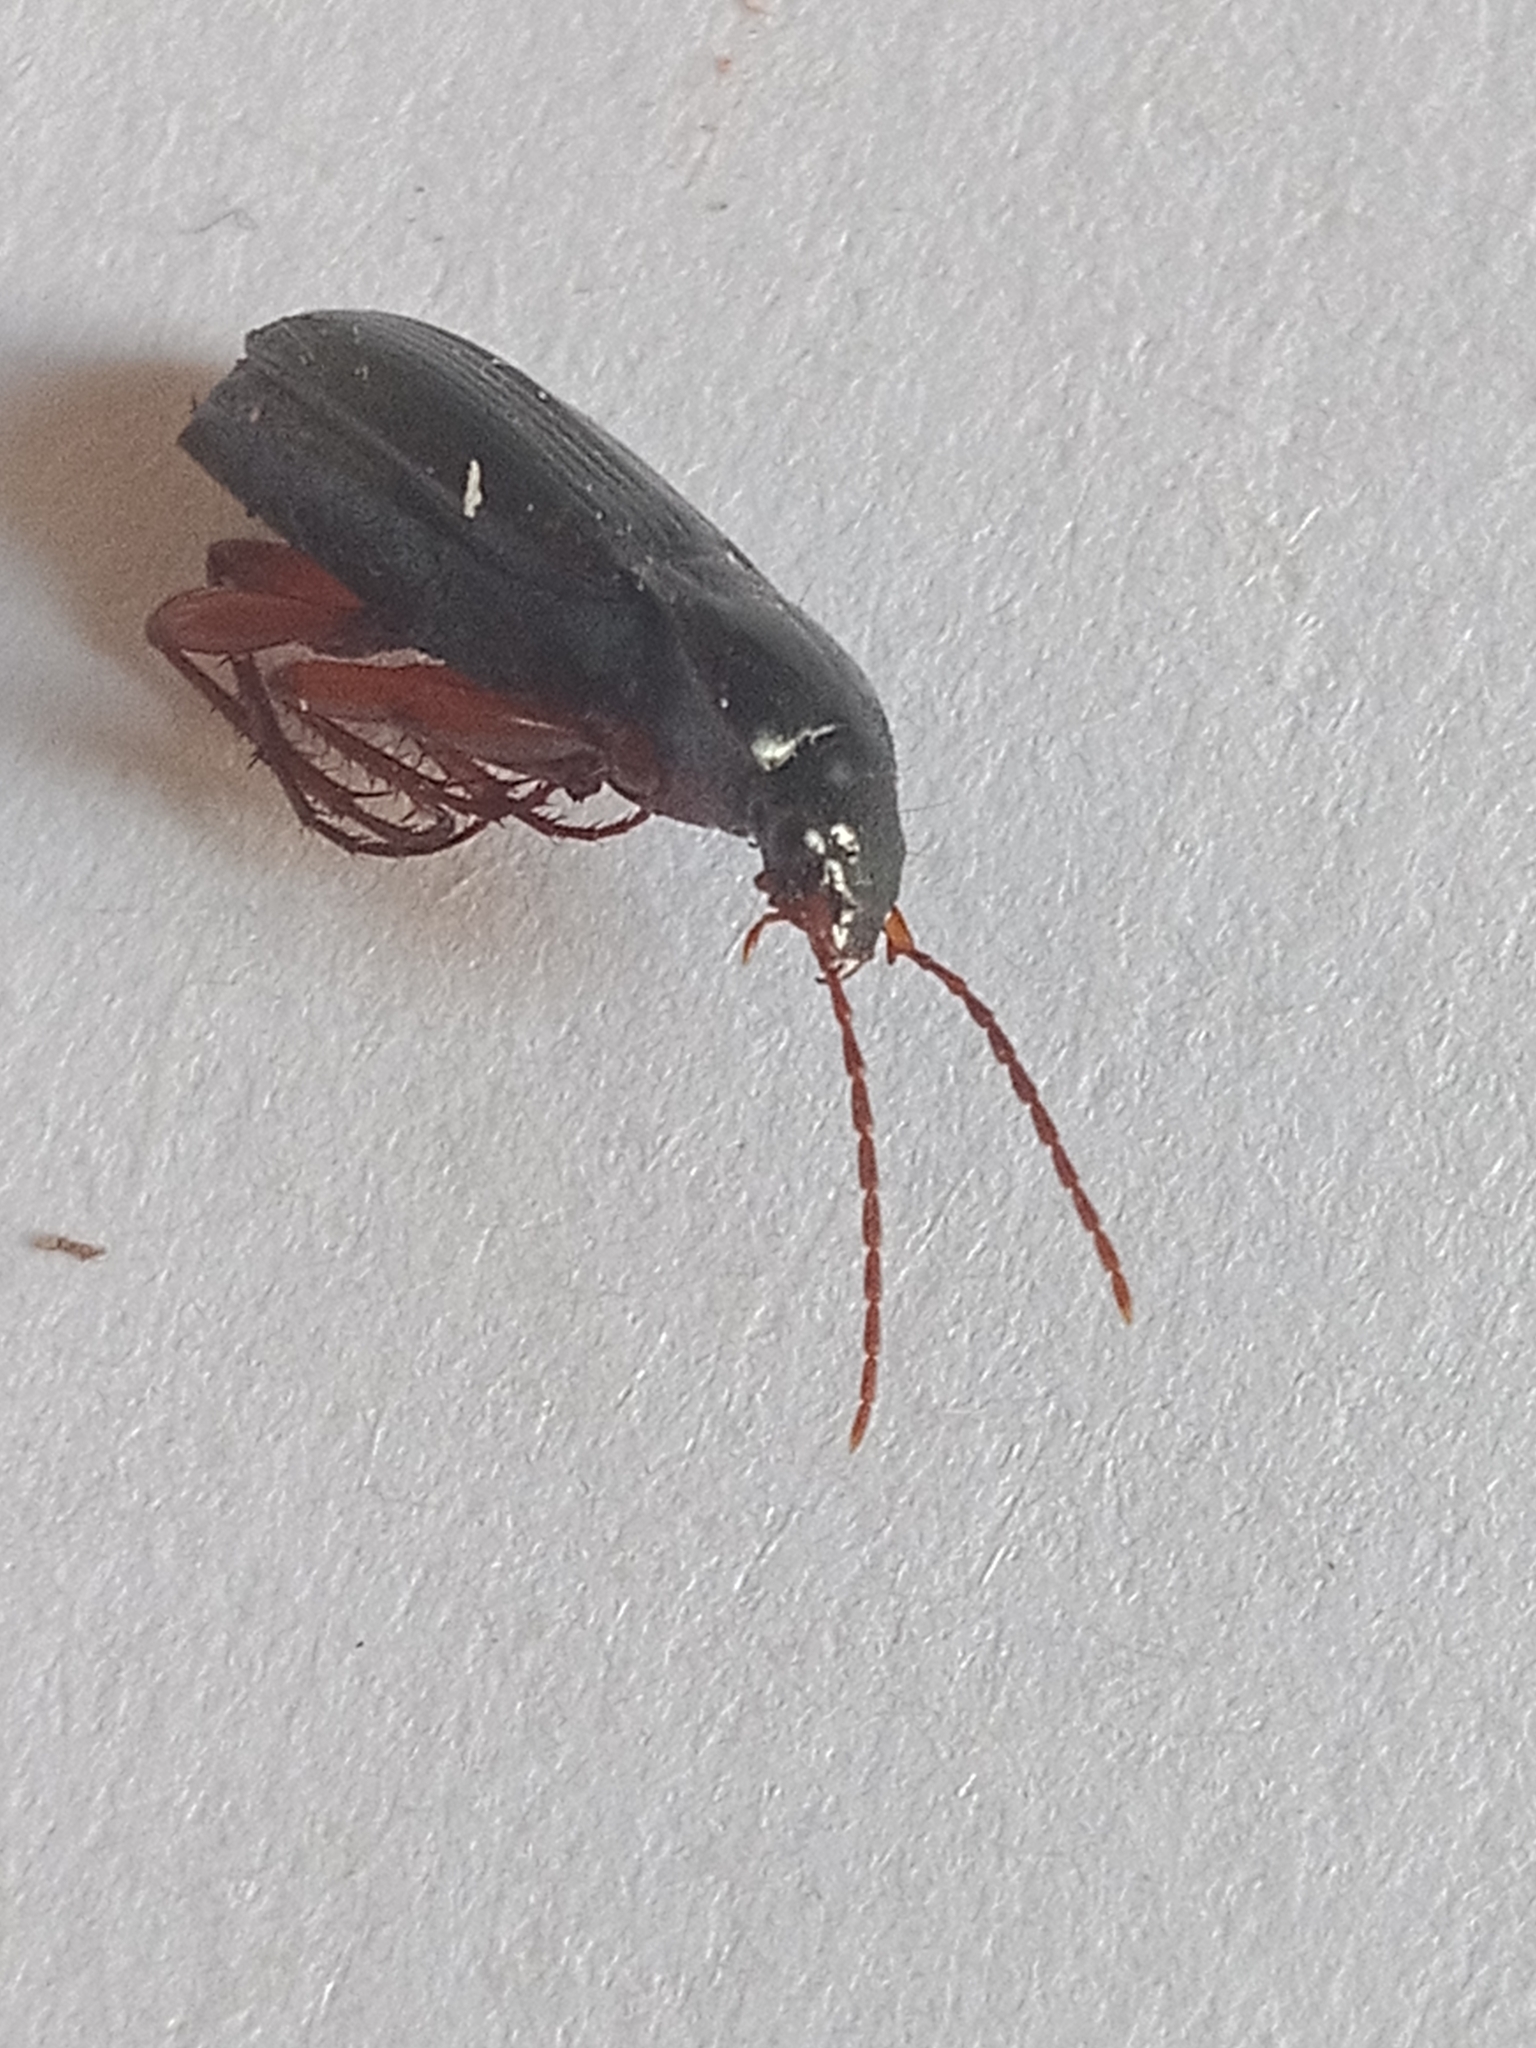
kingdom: Animalia
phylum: Arthropoda
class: Insecta
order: Coleoptera
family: Carabidae
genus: Calathus
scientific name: Calathus erratus
